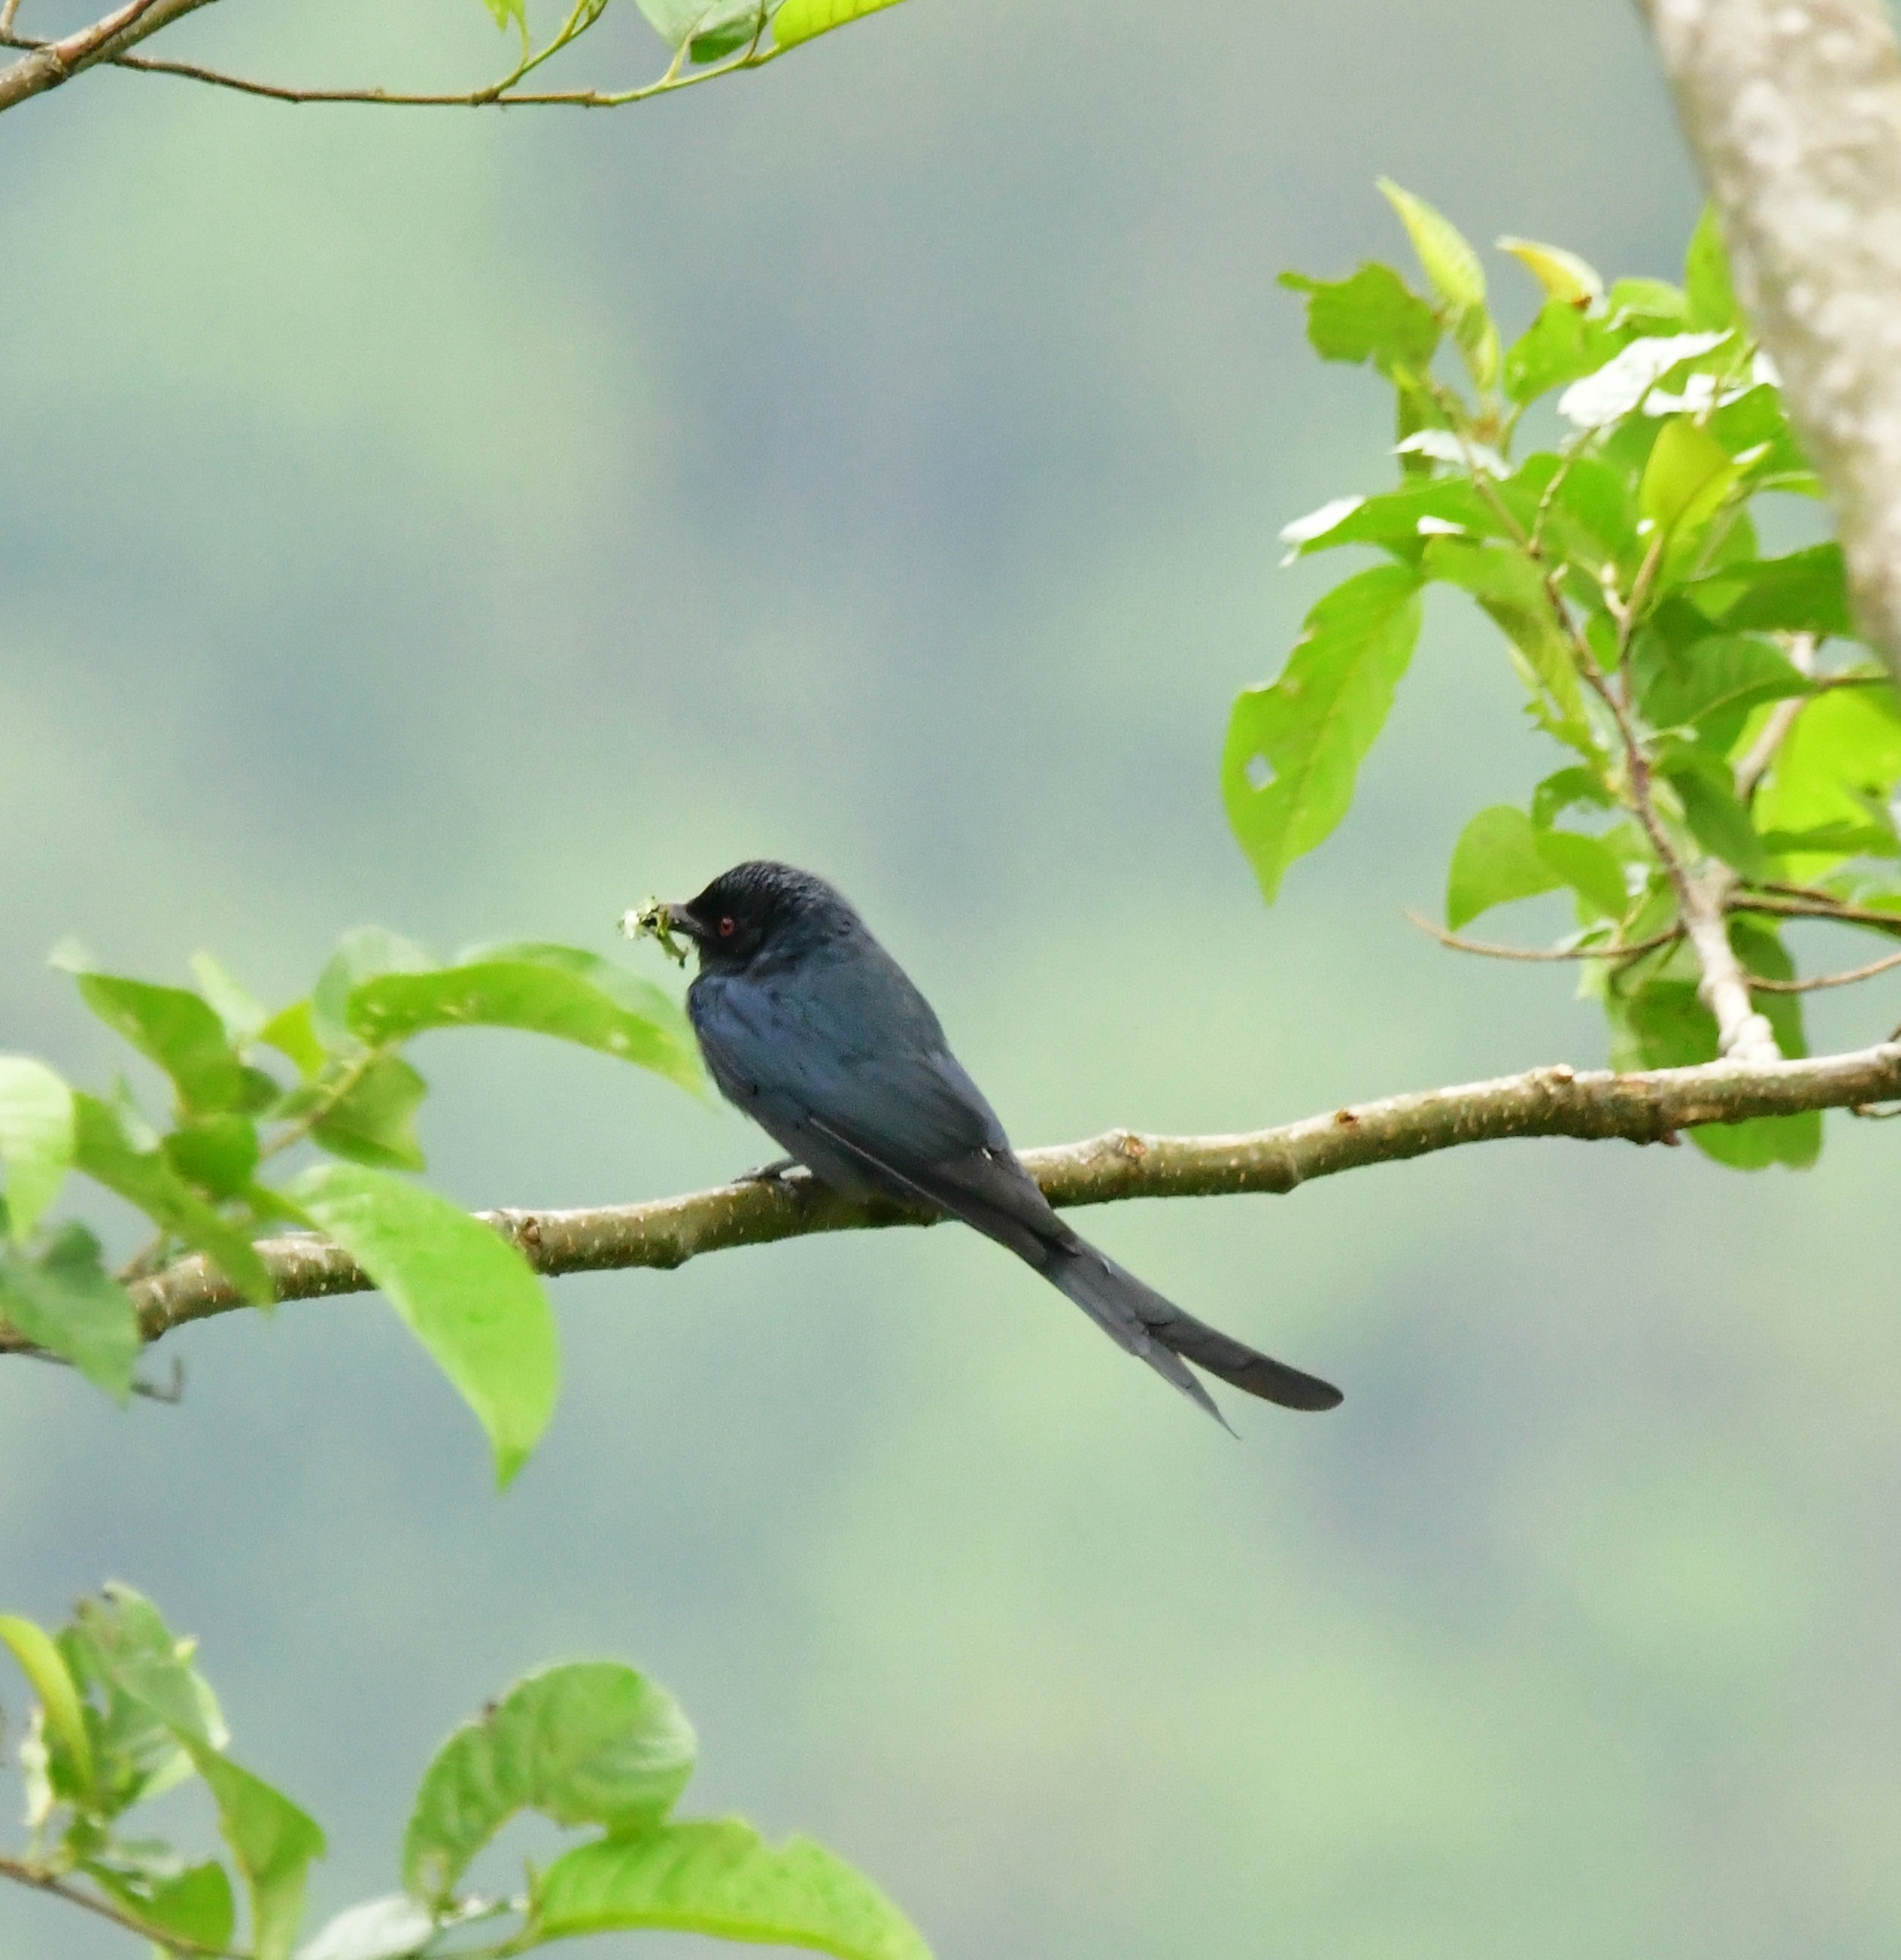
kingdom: Animalia
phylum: Chordata
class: Aves
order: Passeriformes
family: Dicruridae
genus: Dicrurus
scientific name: Dicrurus leucophaeus
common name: Ashy drongo
